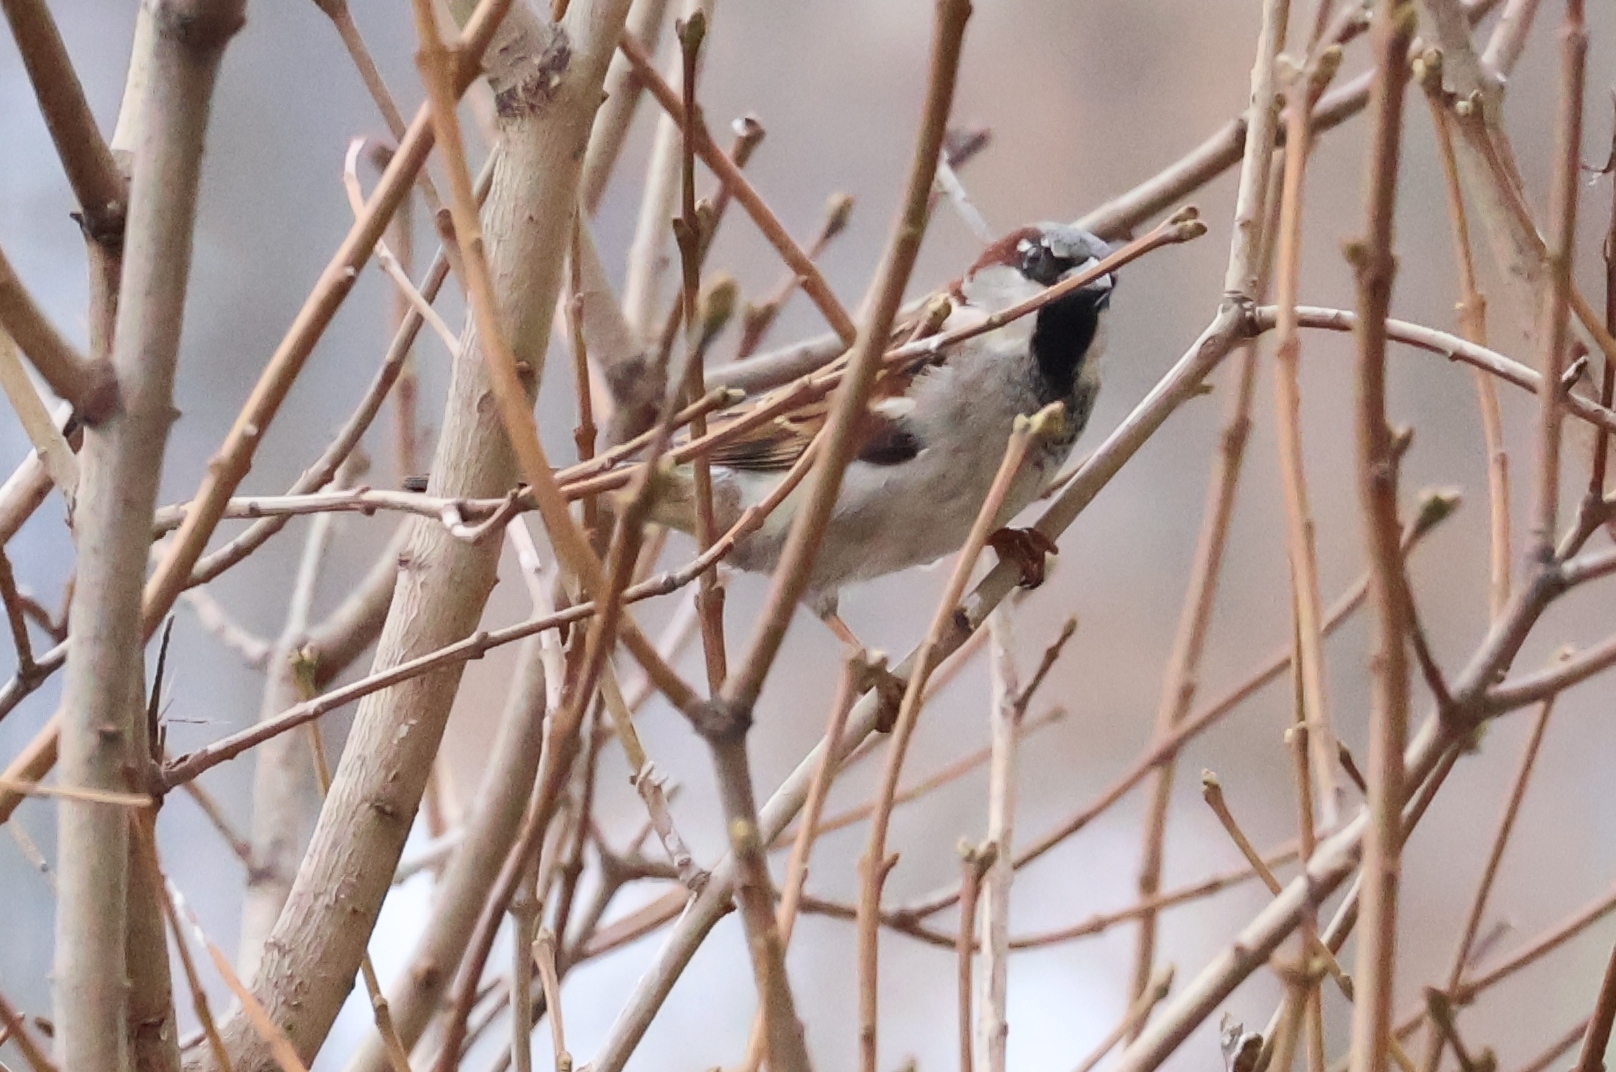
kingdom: Animalia
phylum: Chordata
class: Aves
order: Passeriformes
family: Passeridae
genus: Passer
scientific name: Passer domesticus
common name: House sparrow
